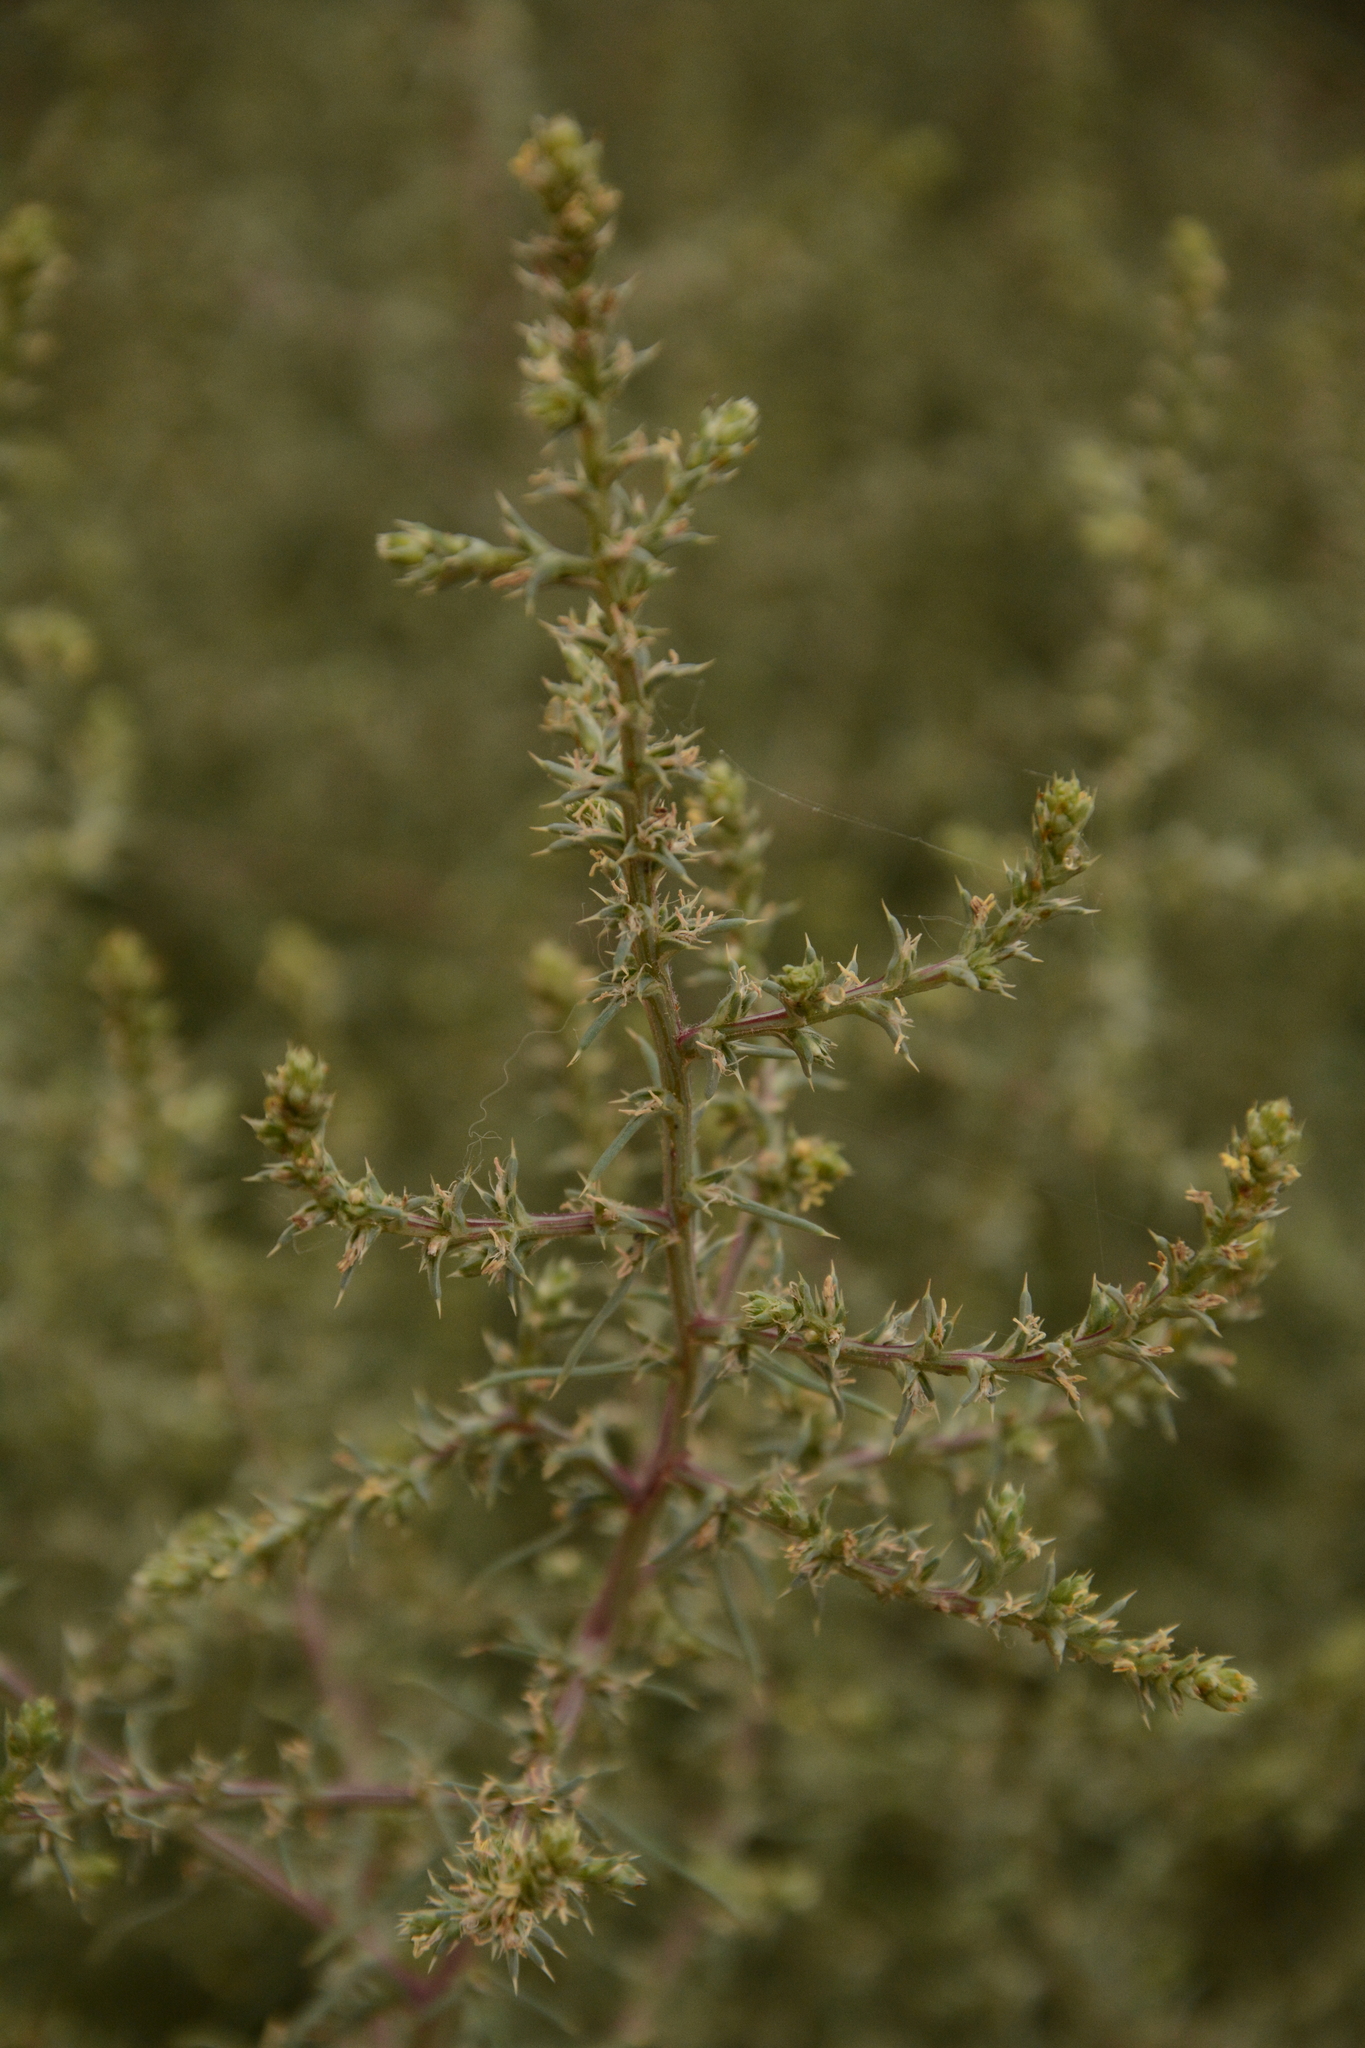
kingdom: Plantae
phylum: Tracheophyta
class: Magnoliopsida
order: Caryophyllales
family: Amaranthaceae
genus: Salsola
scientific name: Salsola tragus
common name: Prickly russian thistle
